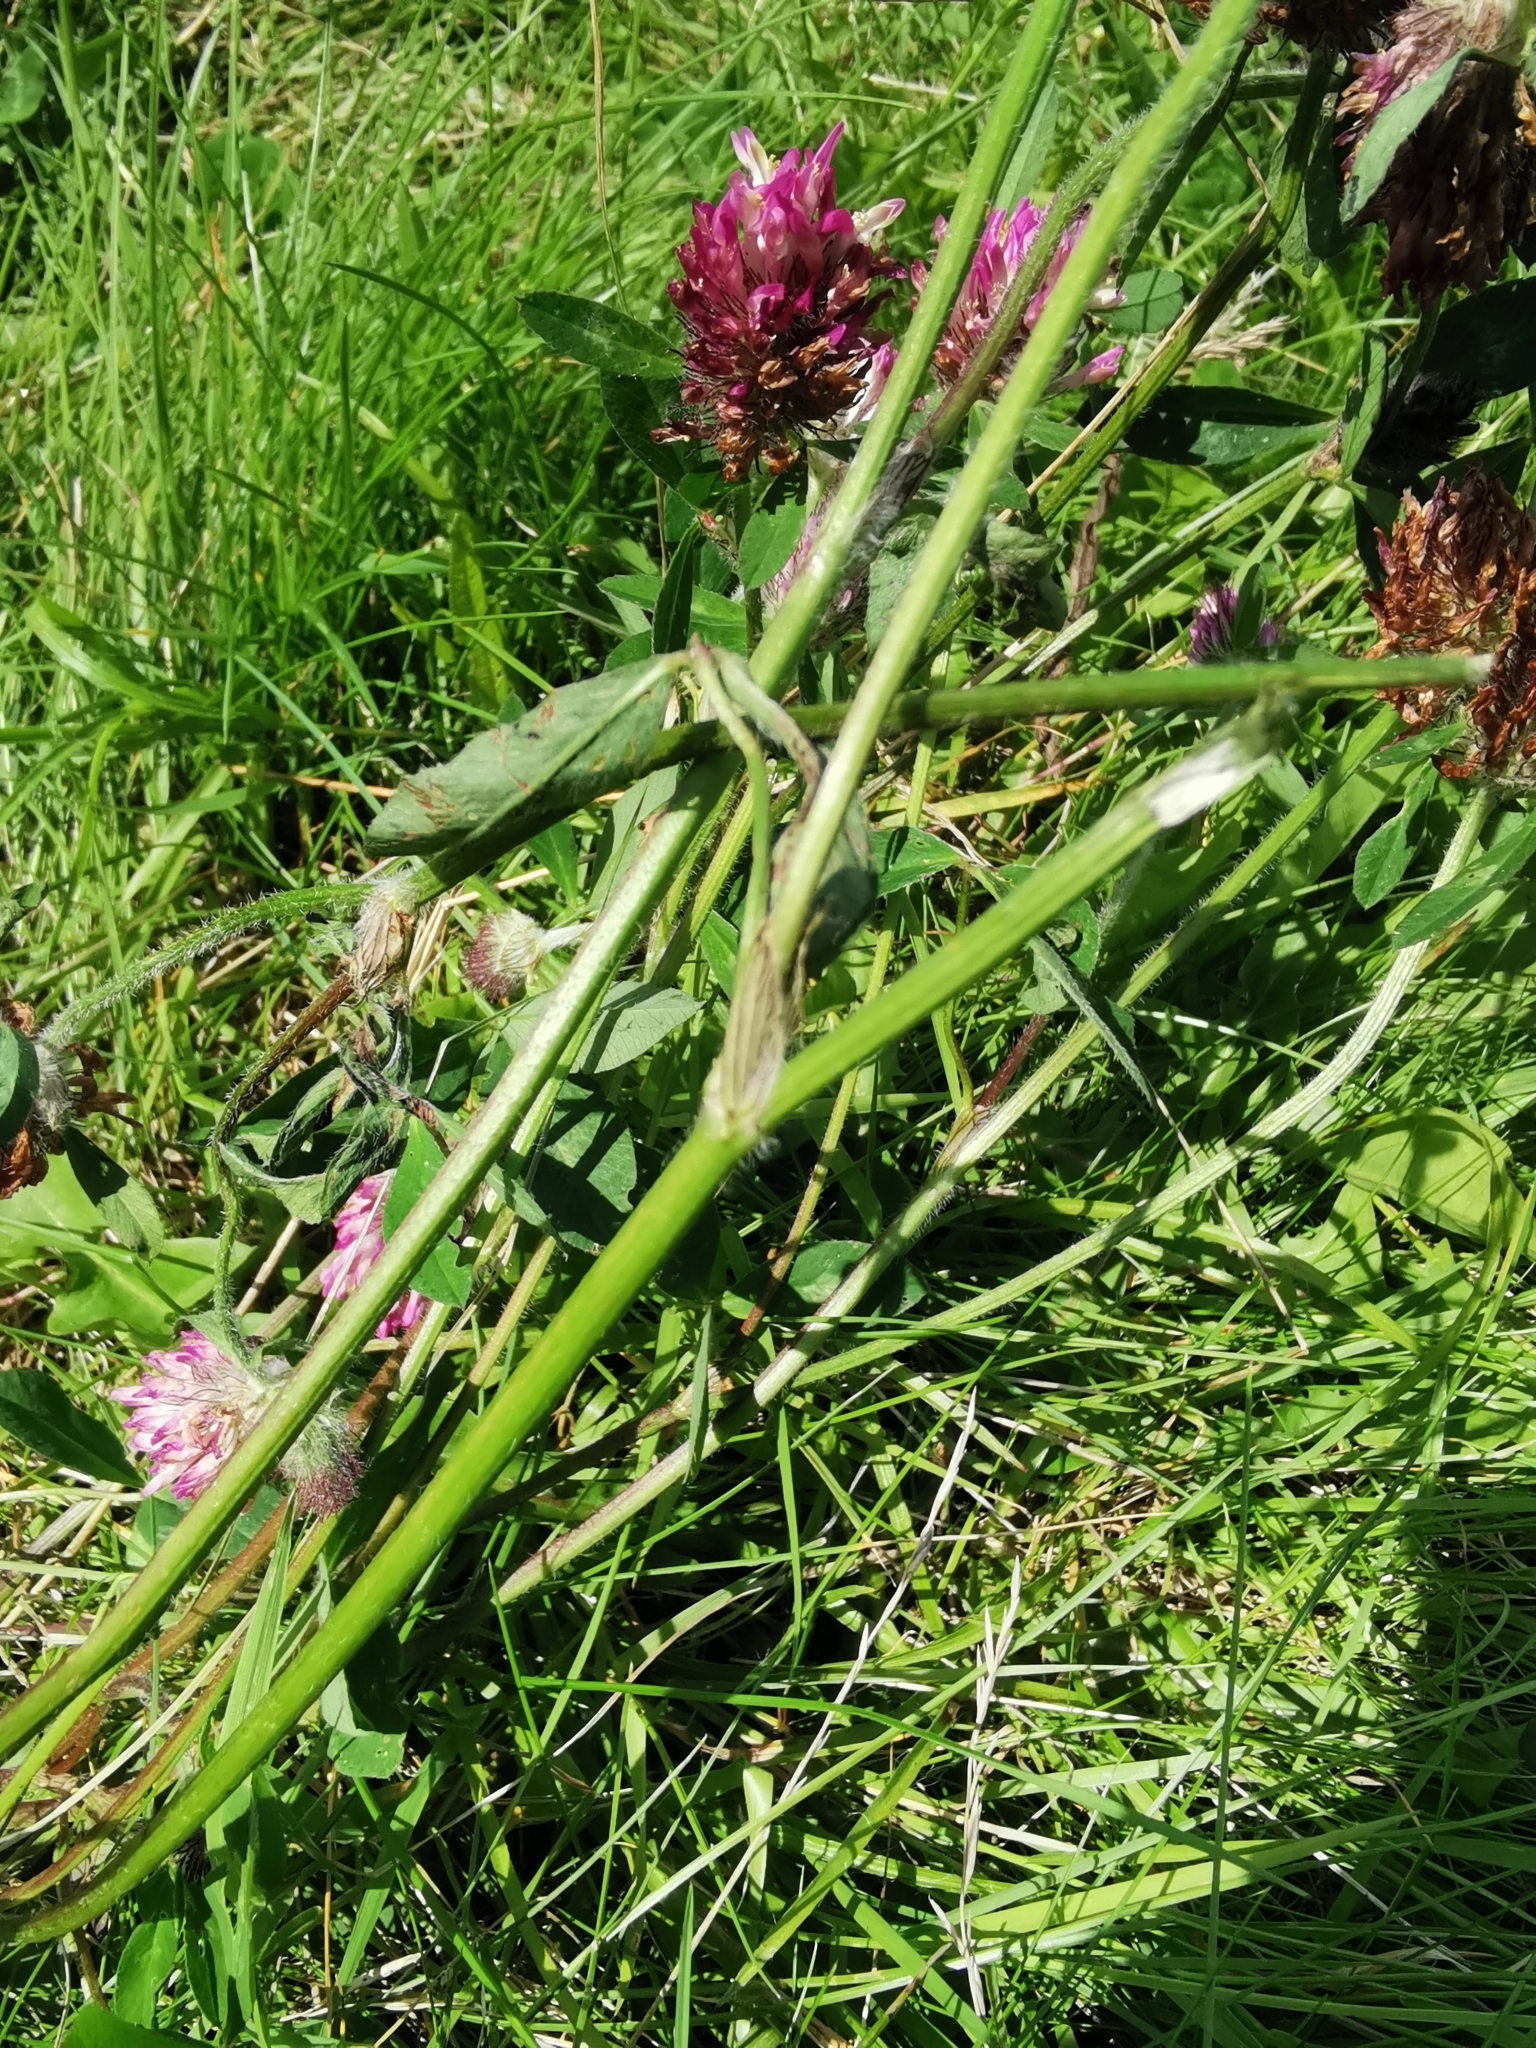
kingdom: Plantae
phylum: Tracheophyta
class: Magnoliopsida
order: Fabales
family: Fabaceae
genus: Trifolium
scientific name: Trifolium pratense
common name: Red clover
